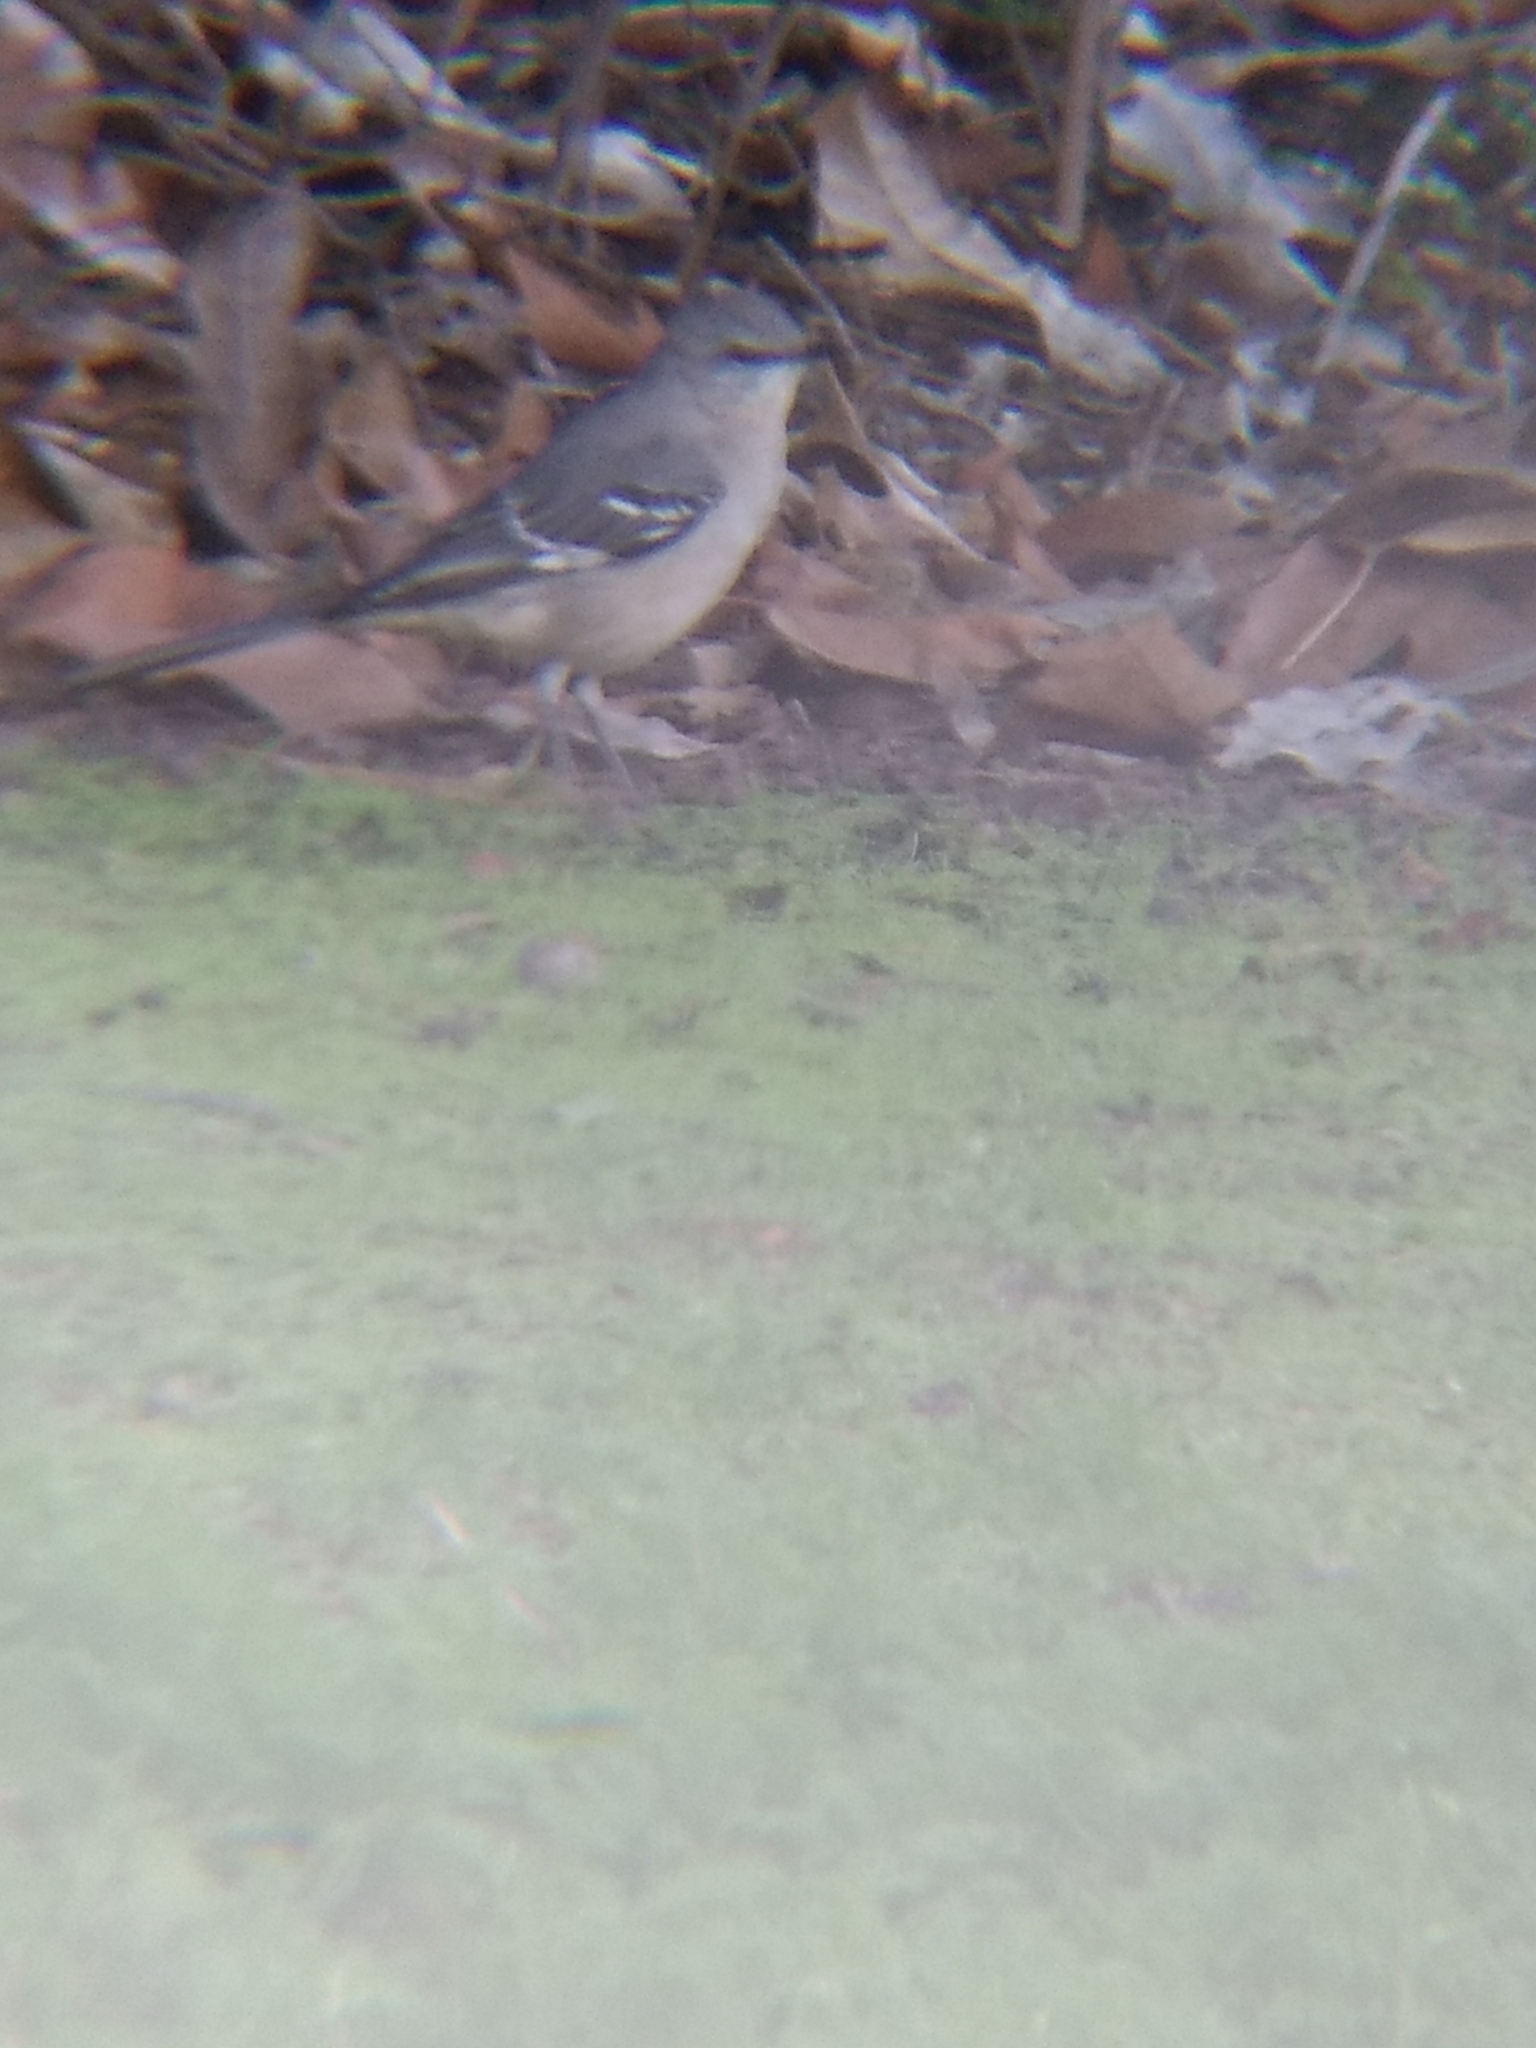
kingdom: Animalia
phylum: Chordata
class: Aves
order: Passeriformes
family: Mimidae
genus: Mimus
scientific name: Mimus polyglottos
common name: Northern mockingbird
